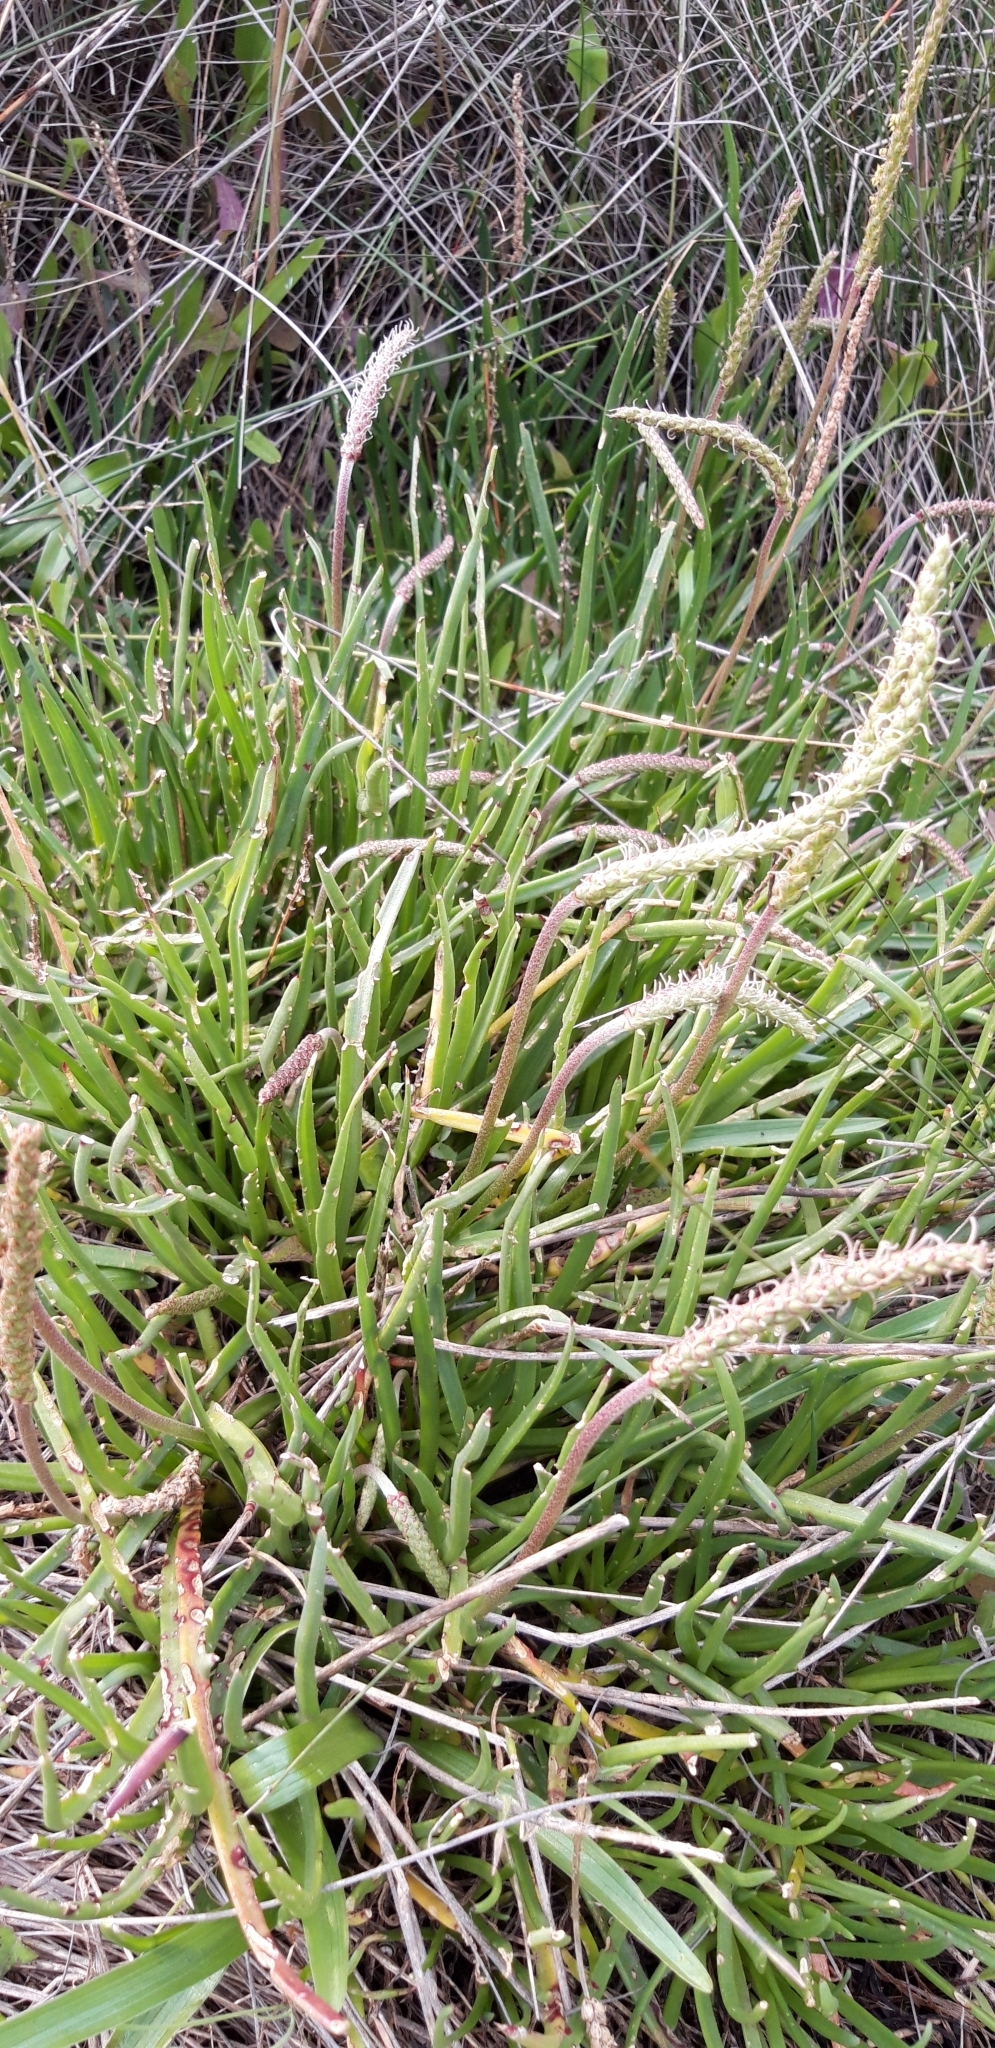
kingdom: Plantae
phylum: Tracheophyta
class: Magnoliopsida
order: Lamiales
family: Plantaginaceae
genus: Plantago
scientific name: Plantago maritima
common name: Sea plantain
